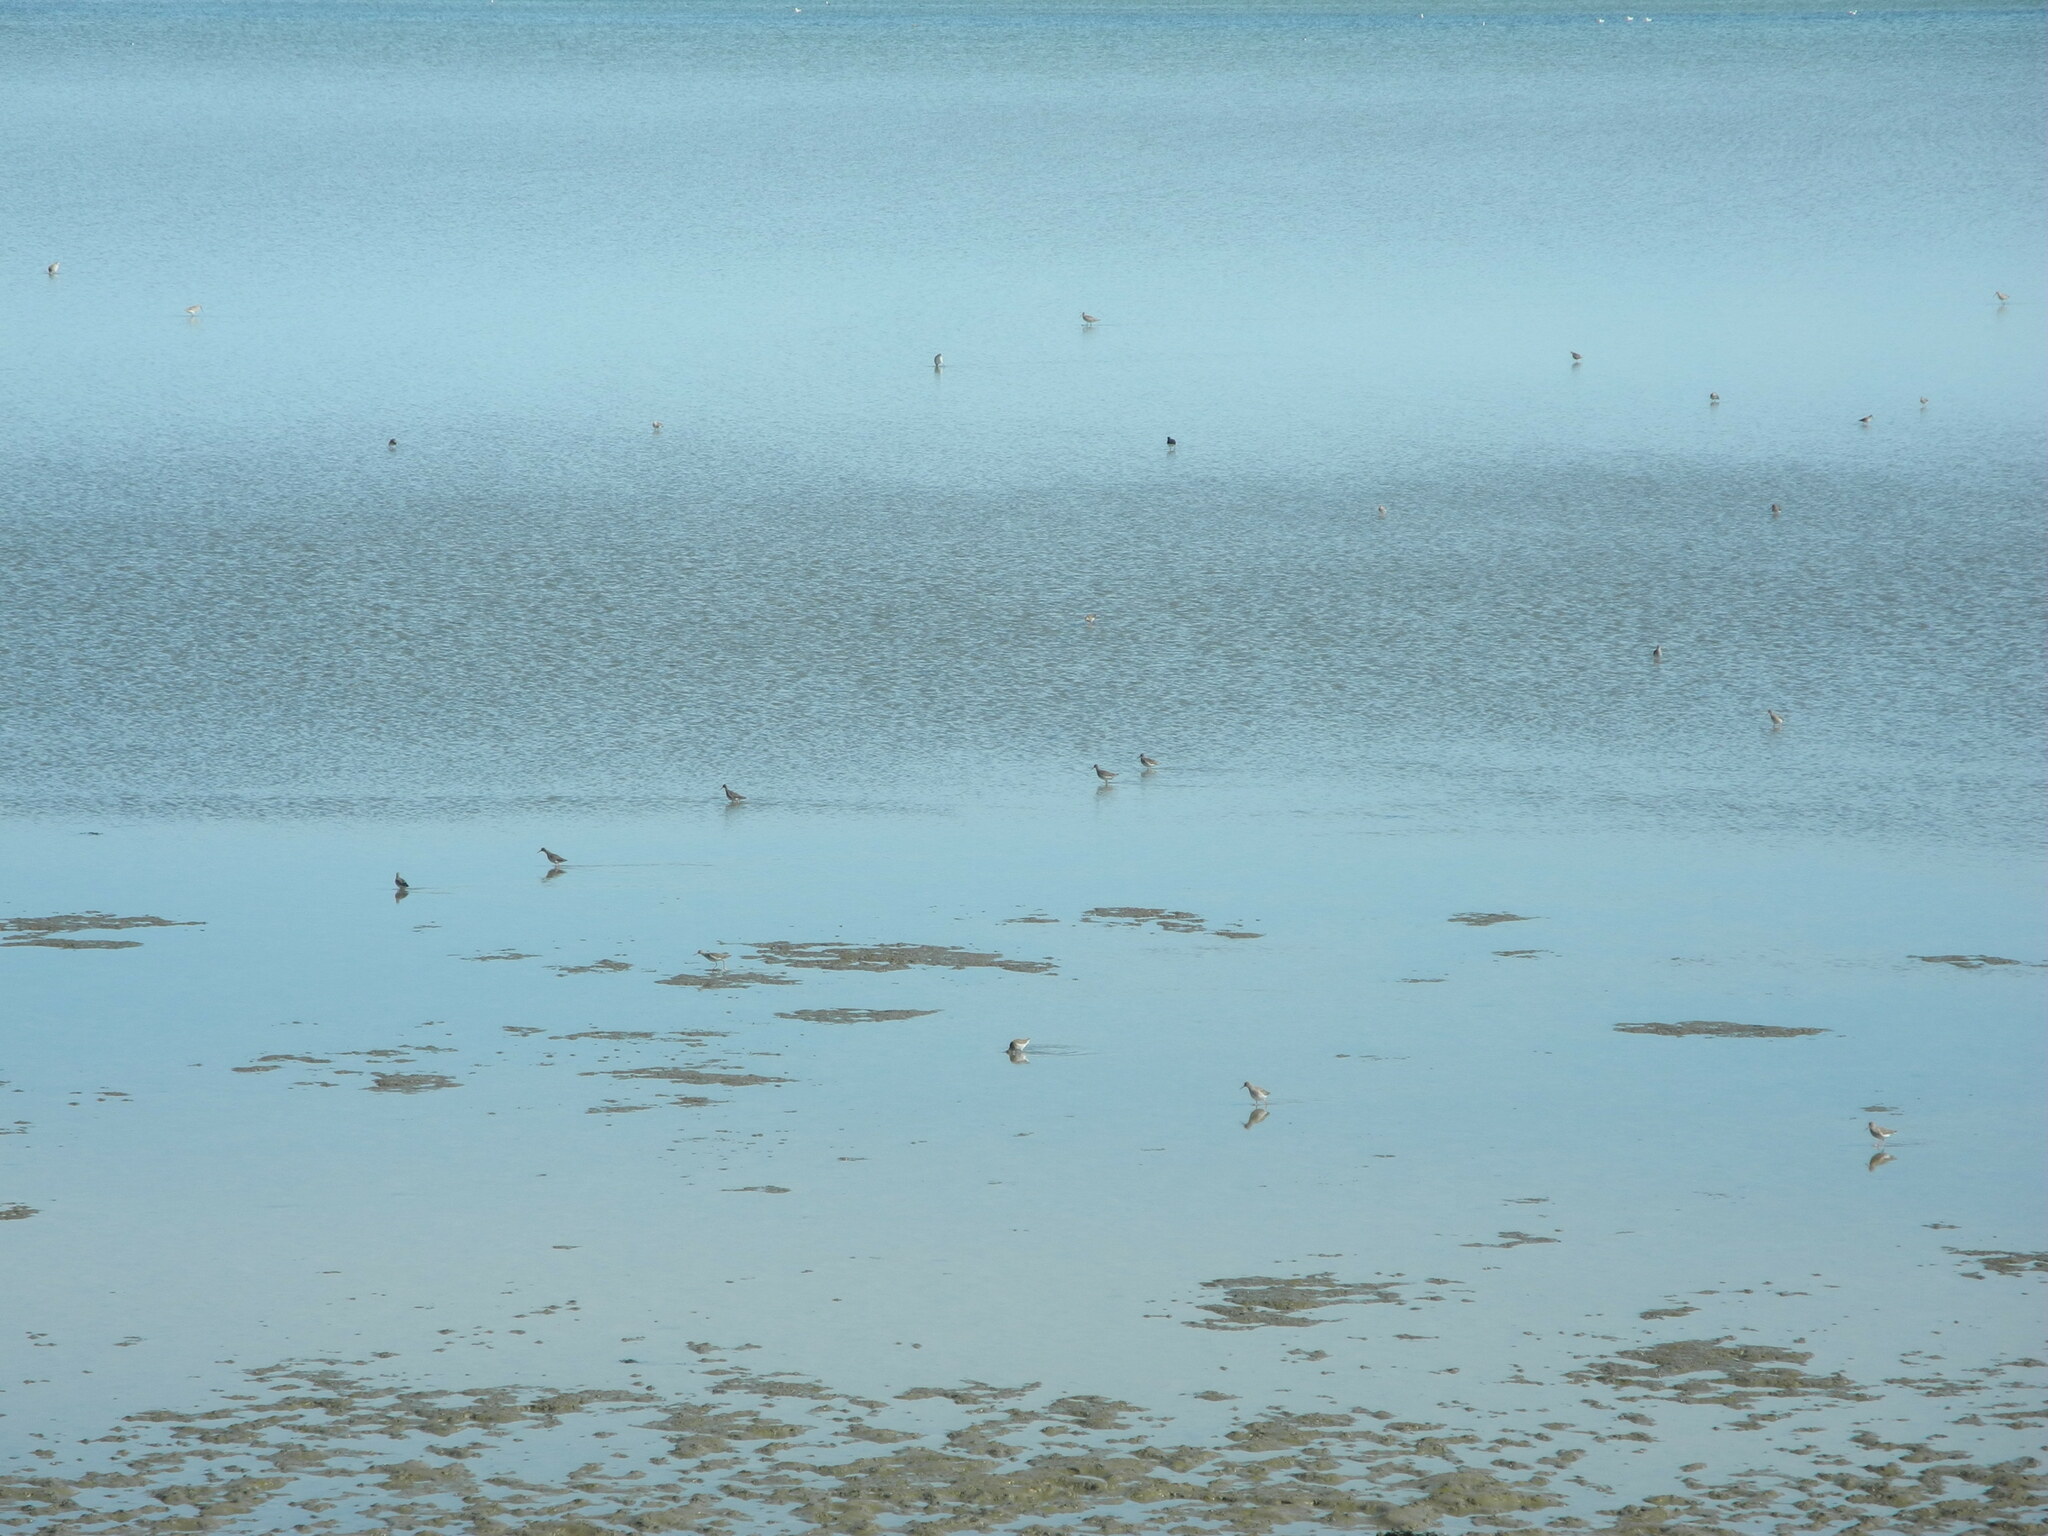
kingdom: Animalia
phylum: Chordata
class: Aves
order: Charadriiformes
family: Scolopacidae
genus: Tringa
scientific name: Tringa totanus
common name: Common redshank
